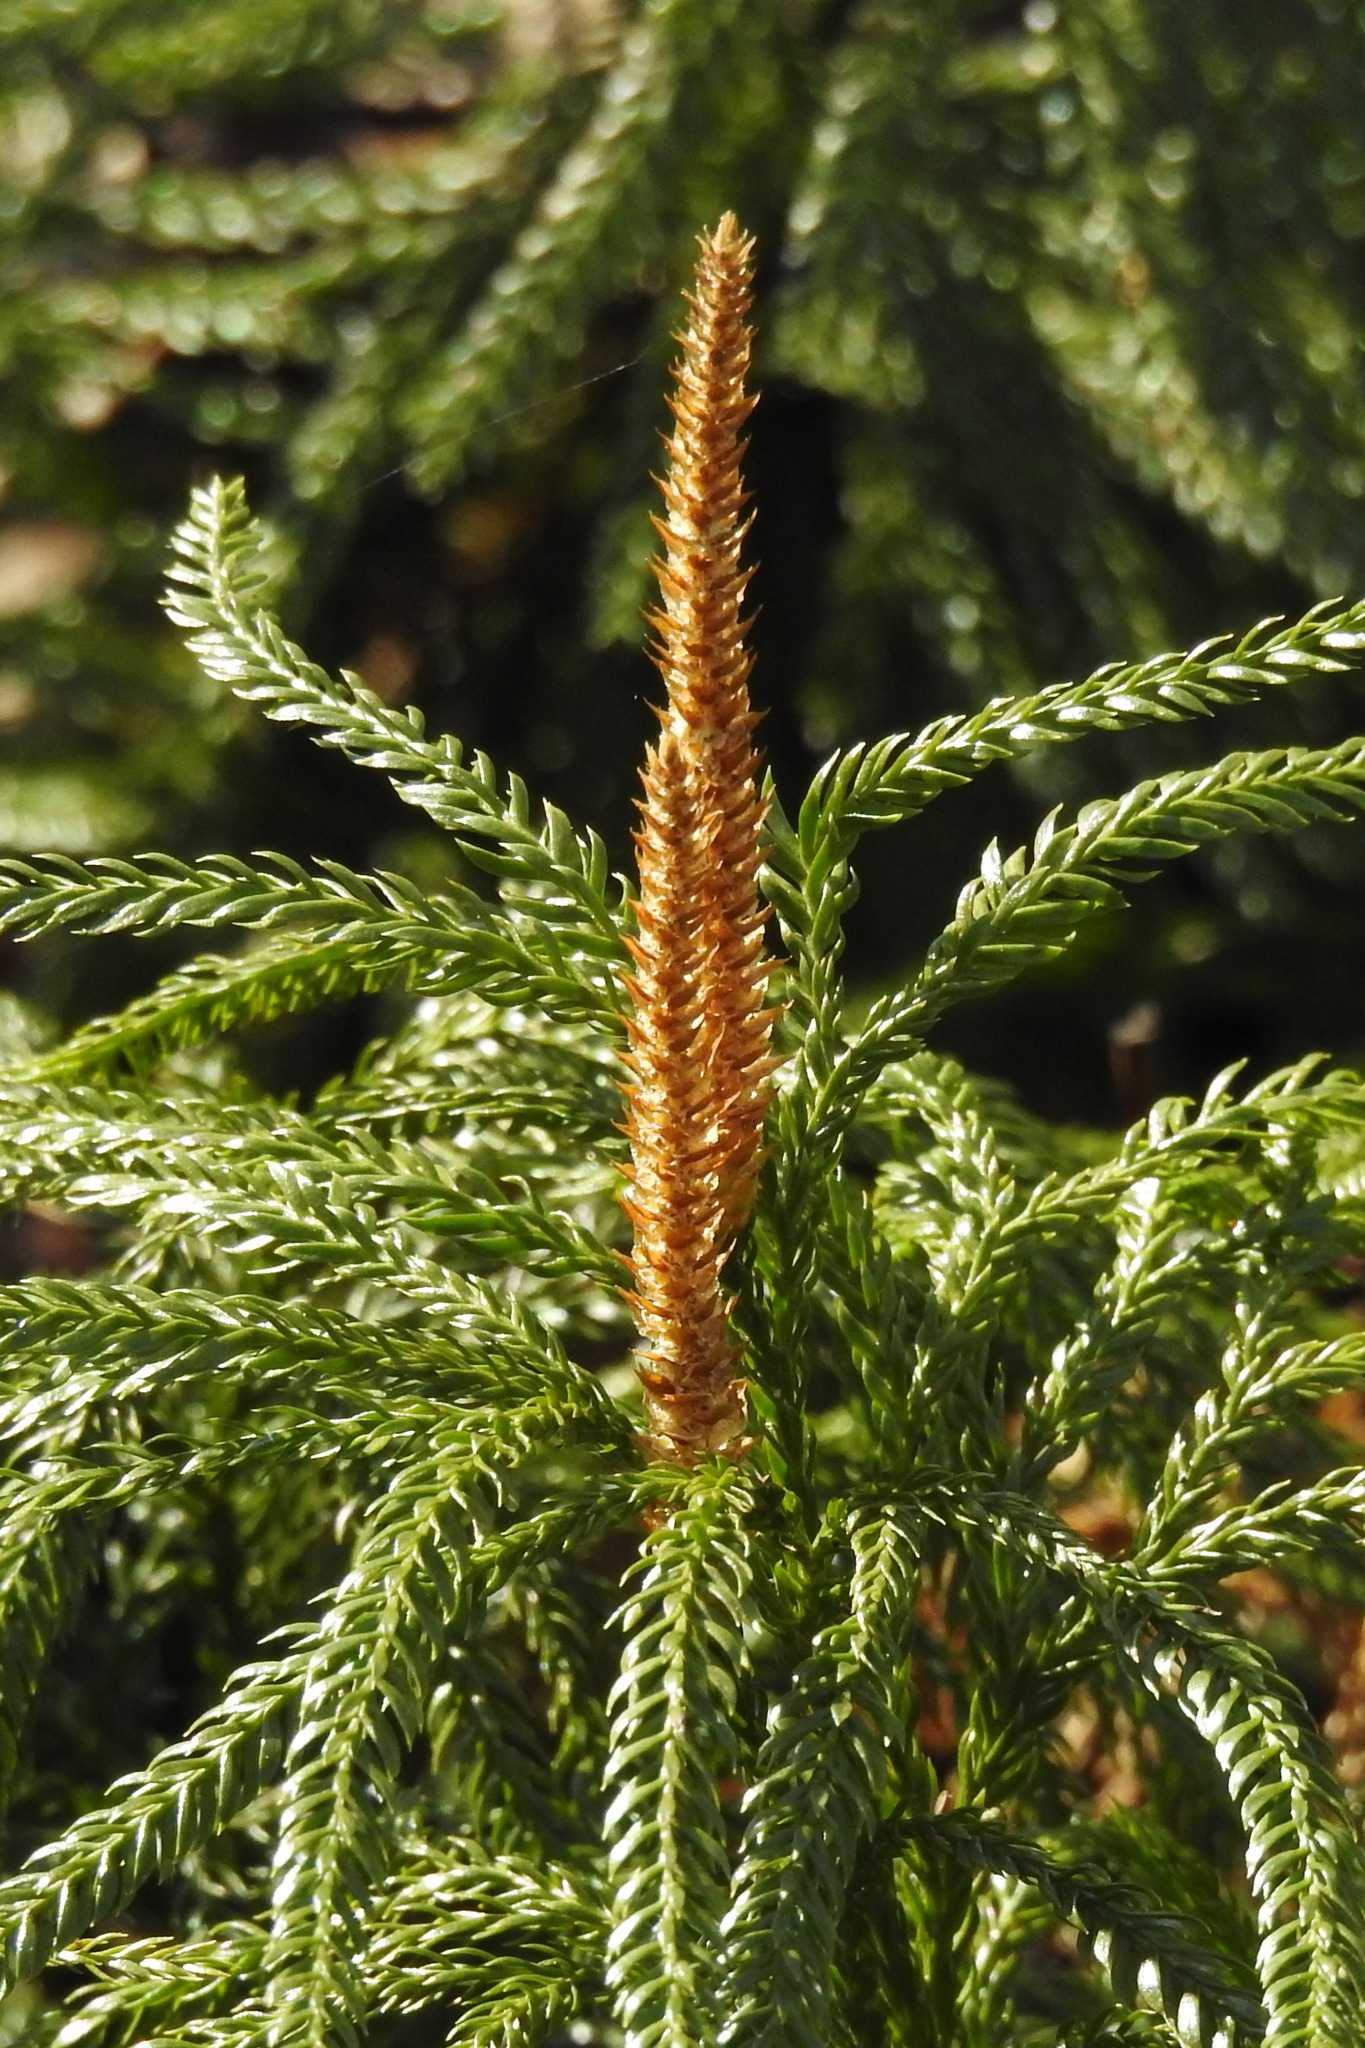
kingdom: Plantae
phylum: Tracheophyta
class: Lycopodiopsida
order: Lycopodiales
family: Lycopodiaceae
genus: Dendrolycopodium
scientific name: Dendrolycopodium obscurum
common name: Common ground-pine
